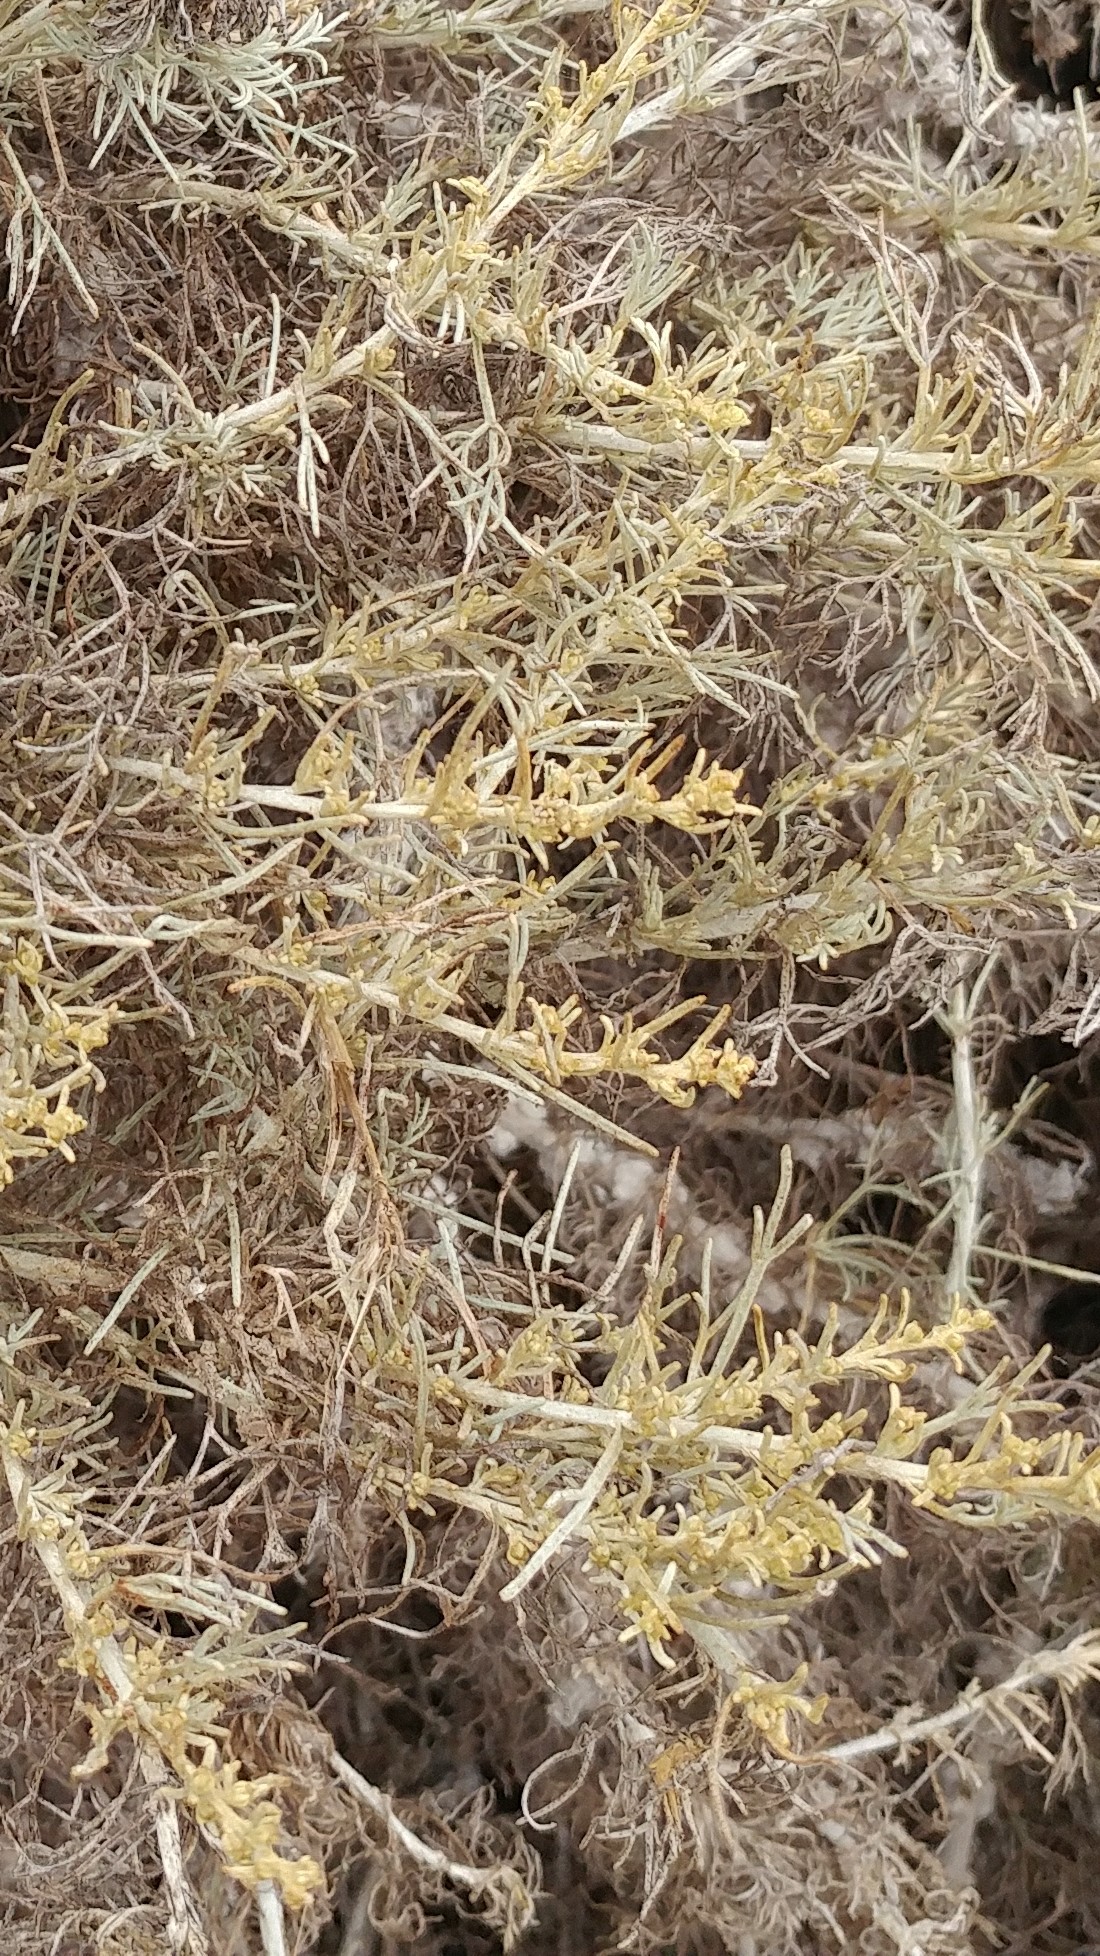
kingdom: Plantae
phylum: Tracheophyta
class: Magnoliopsida
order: Asterales
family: Asteraceae
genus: Artemisia
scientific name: Artemisia californica
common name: California sagebrush
